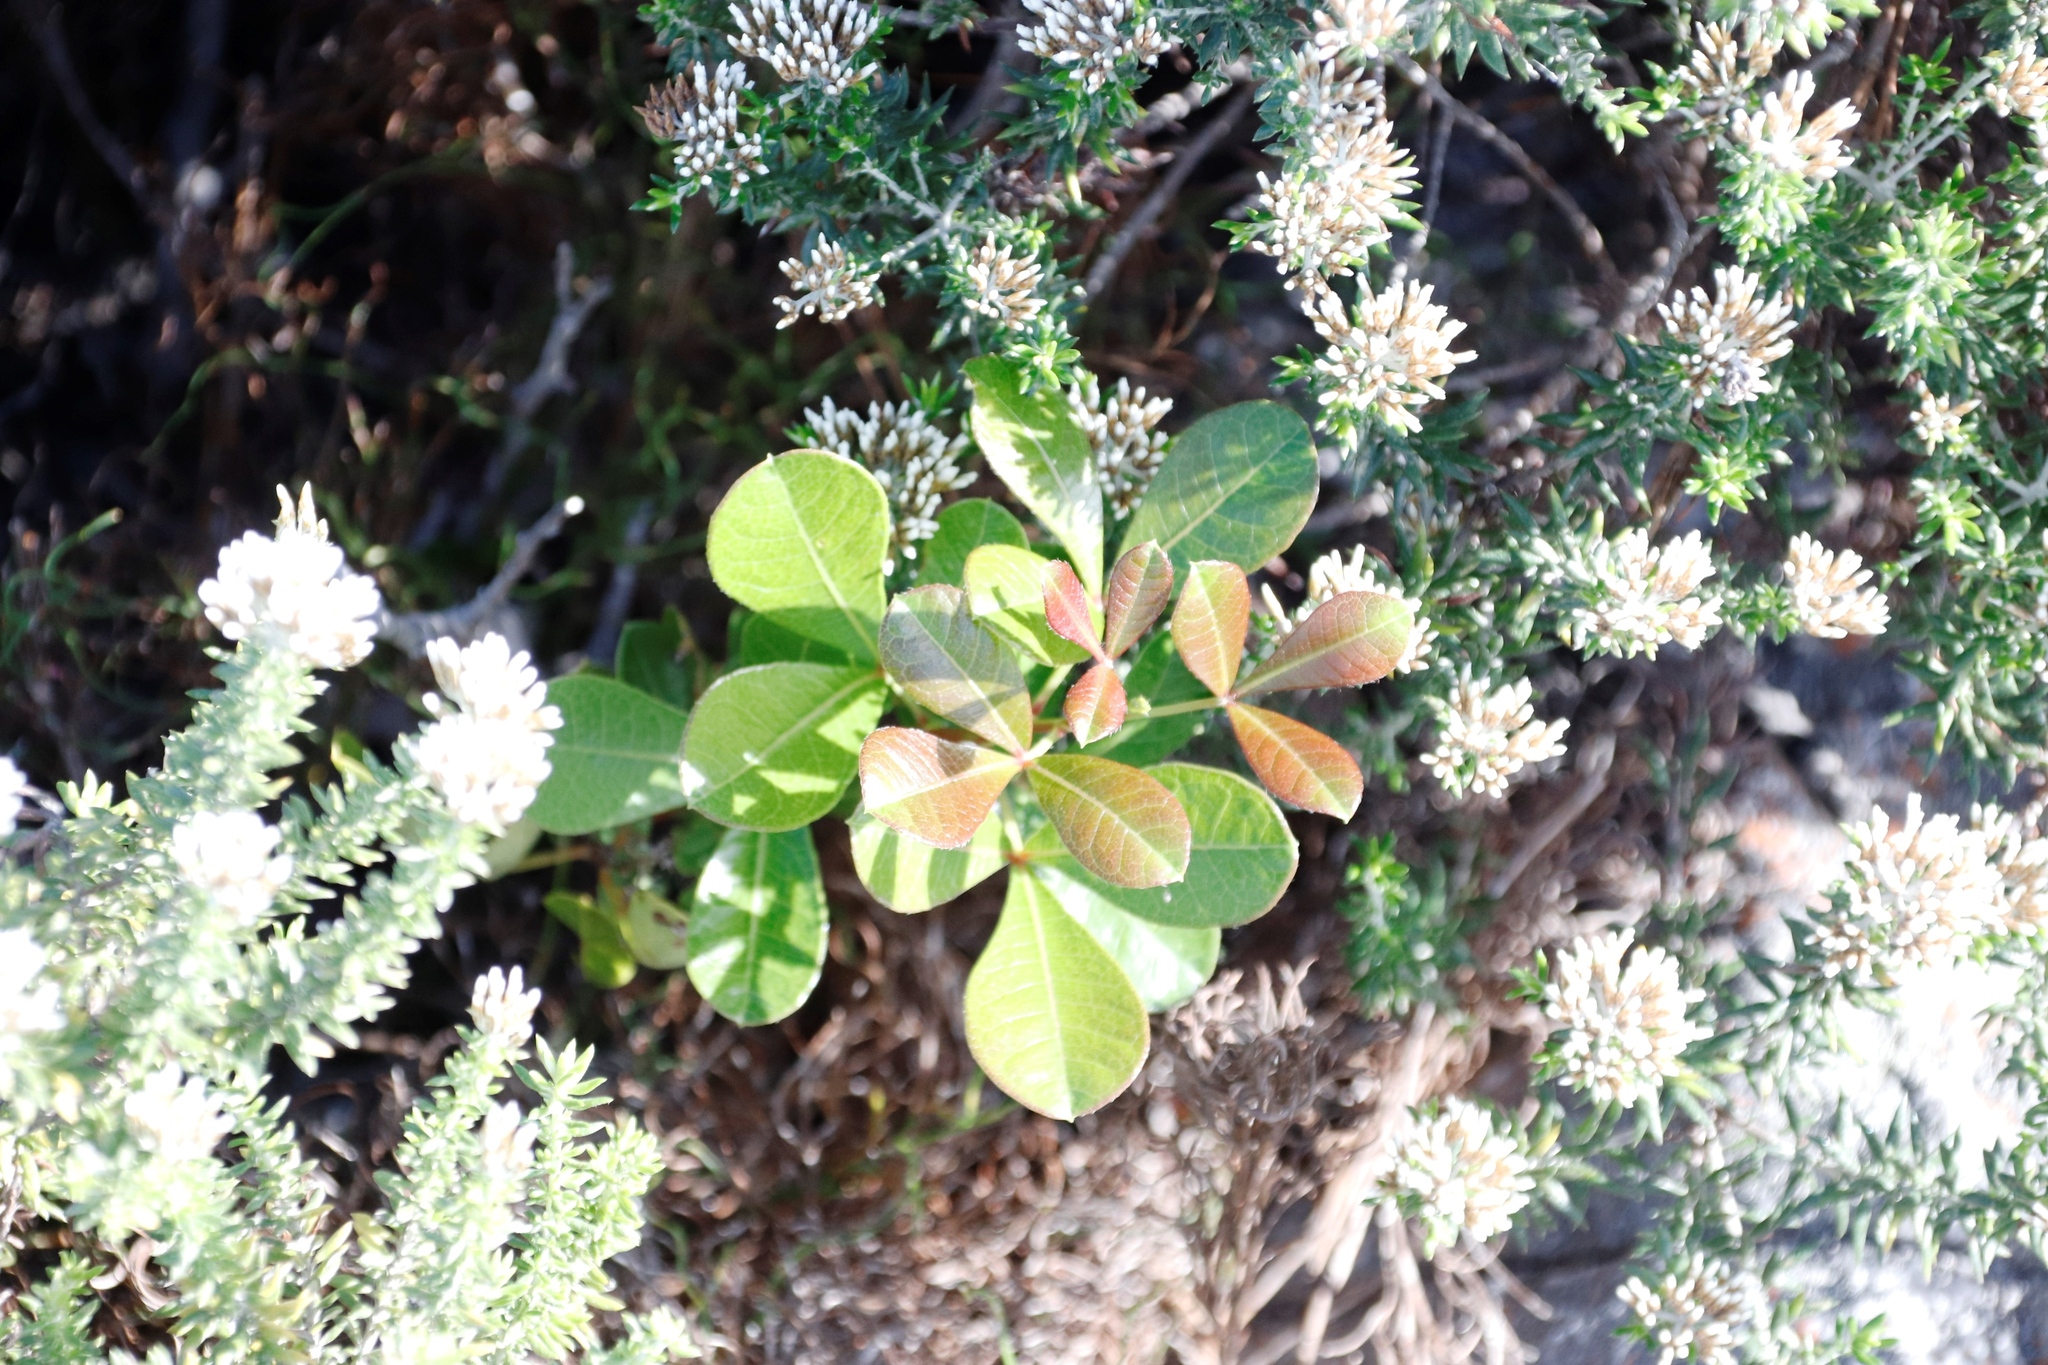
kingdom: Plantae
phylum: Tracheophyta
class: Magnoliopsida
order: Sapindales
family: Anacardiaceae
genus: Searsia
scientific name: Searsia laevigata
